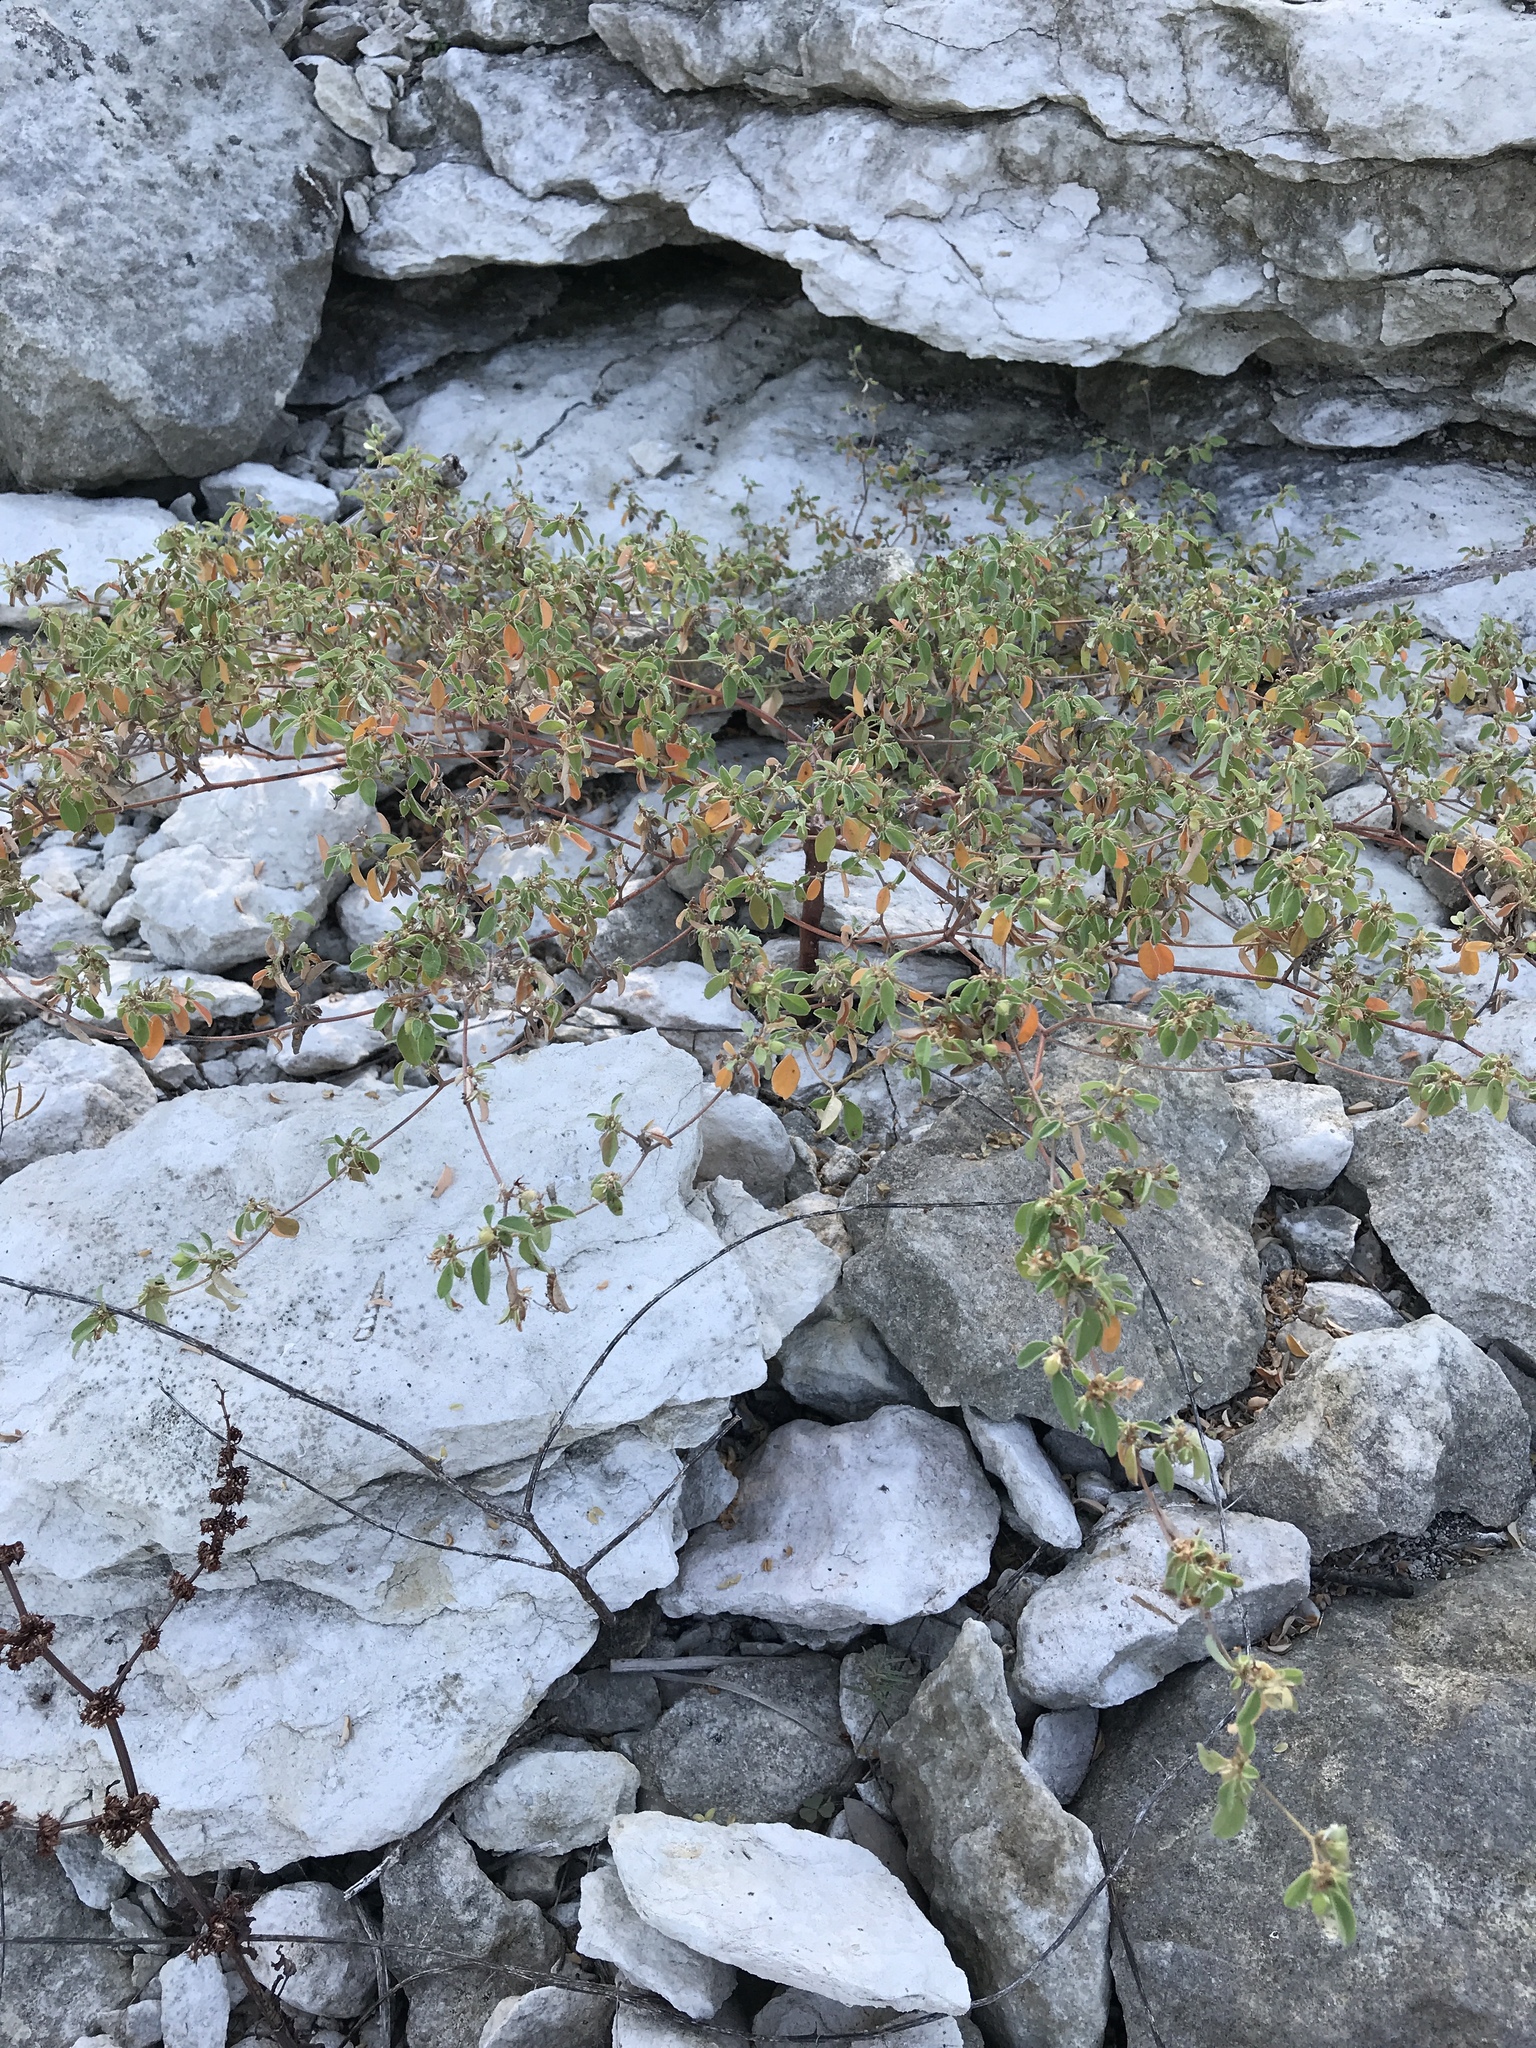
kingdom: Plantae
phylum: Tracheophyta
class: Magnoliopsida
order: Malpighiales
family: Euphorbiaceae
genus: Croton
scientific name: Croton monanthogynus
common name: One-seed croton
